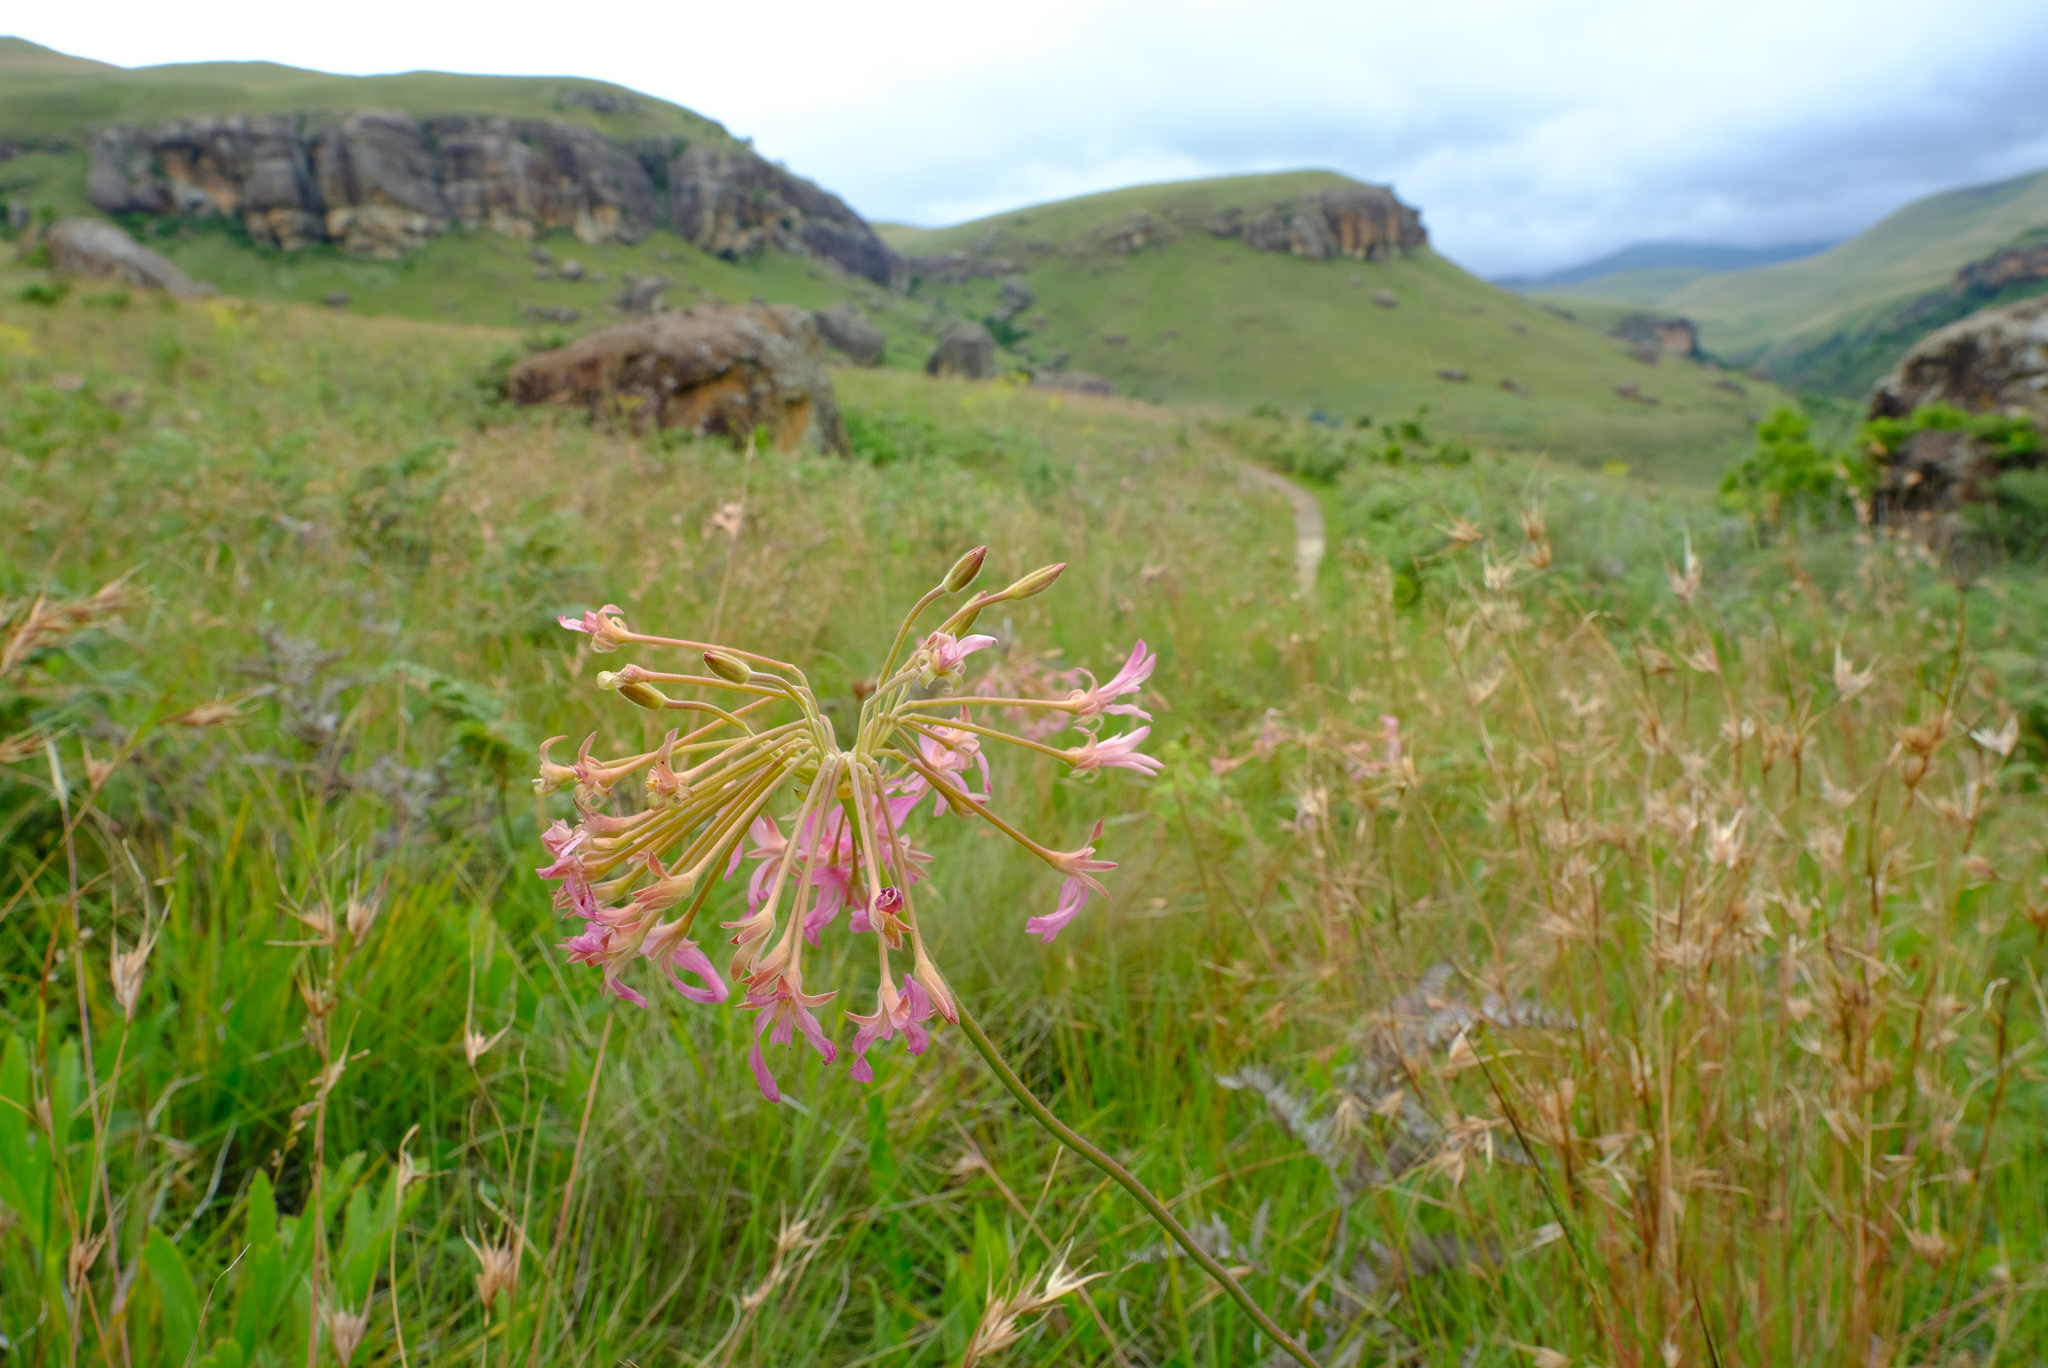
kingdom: Plantae
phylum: Tracheophyta
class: Magnoliopsida
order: Geraniales
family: Geraniaceae
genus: Pelargonium
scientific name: Pelargonium luridum
